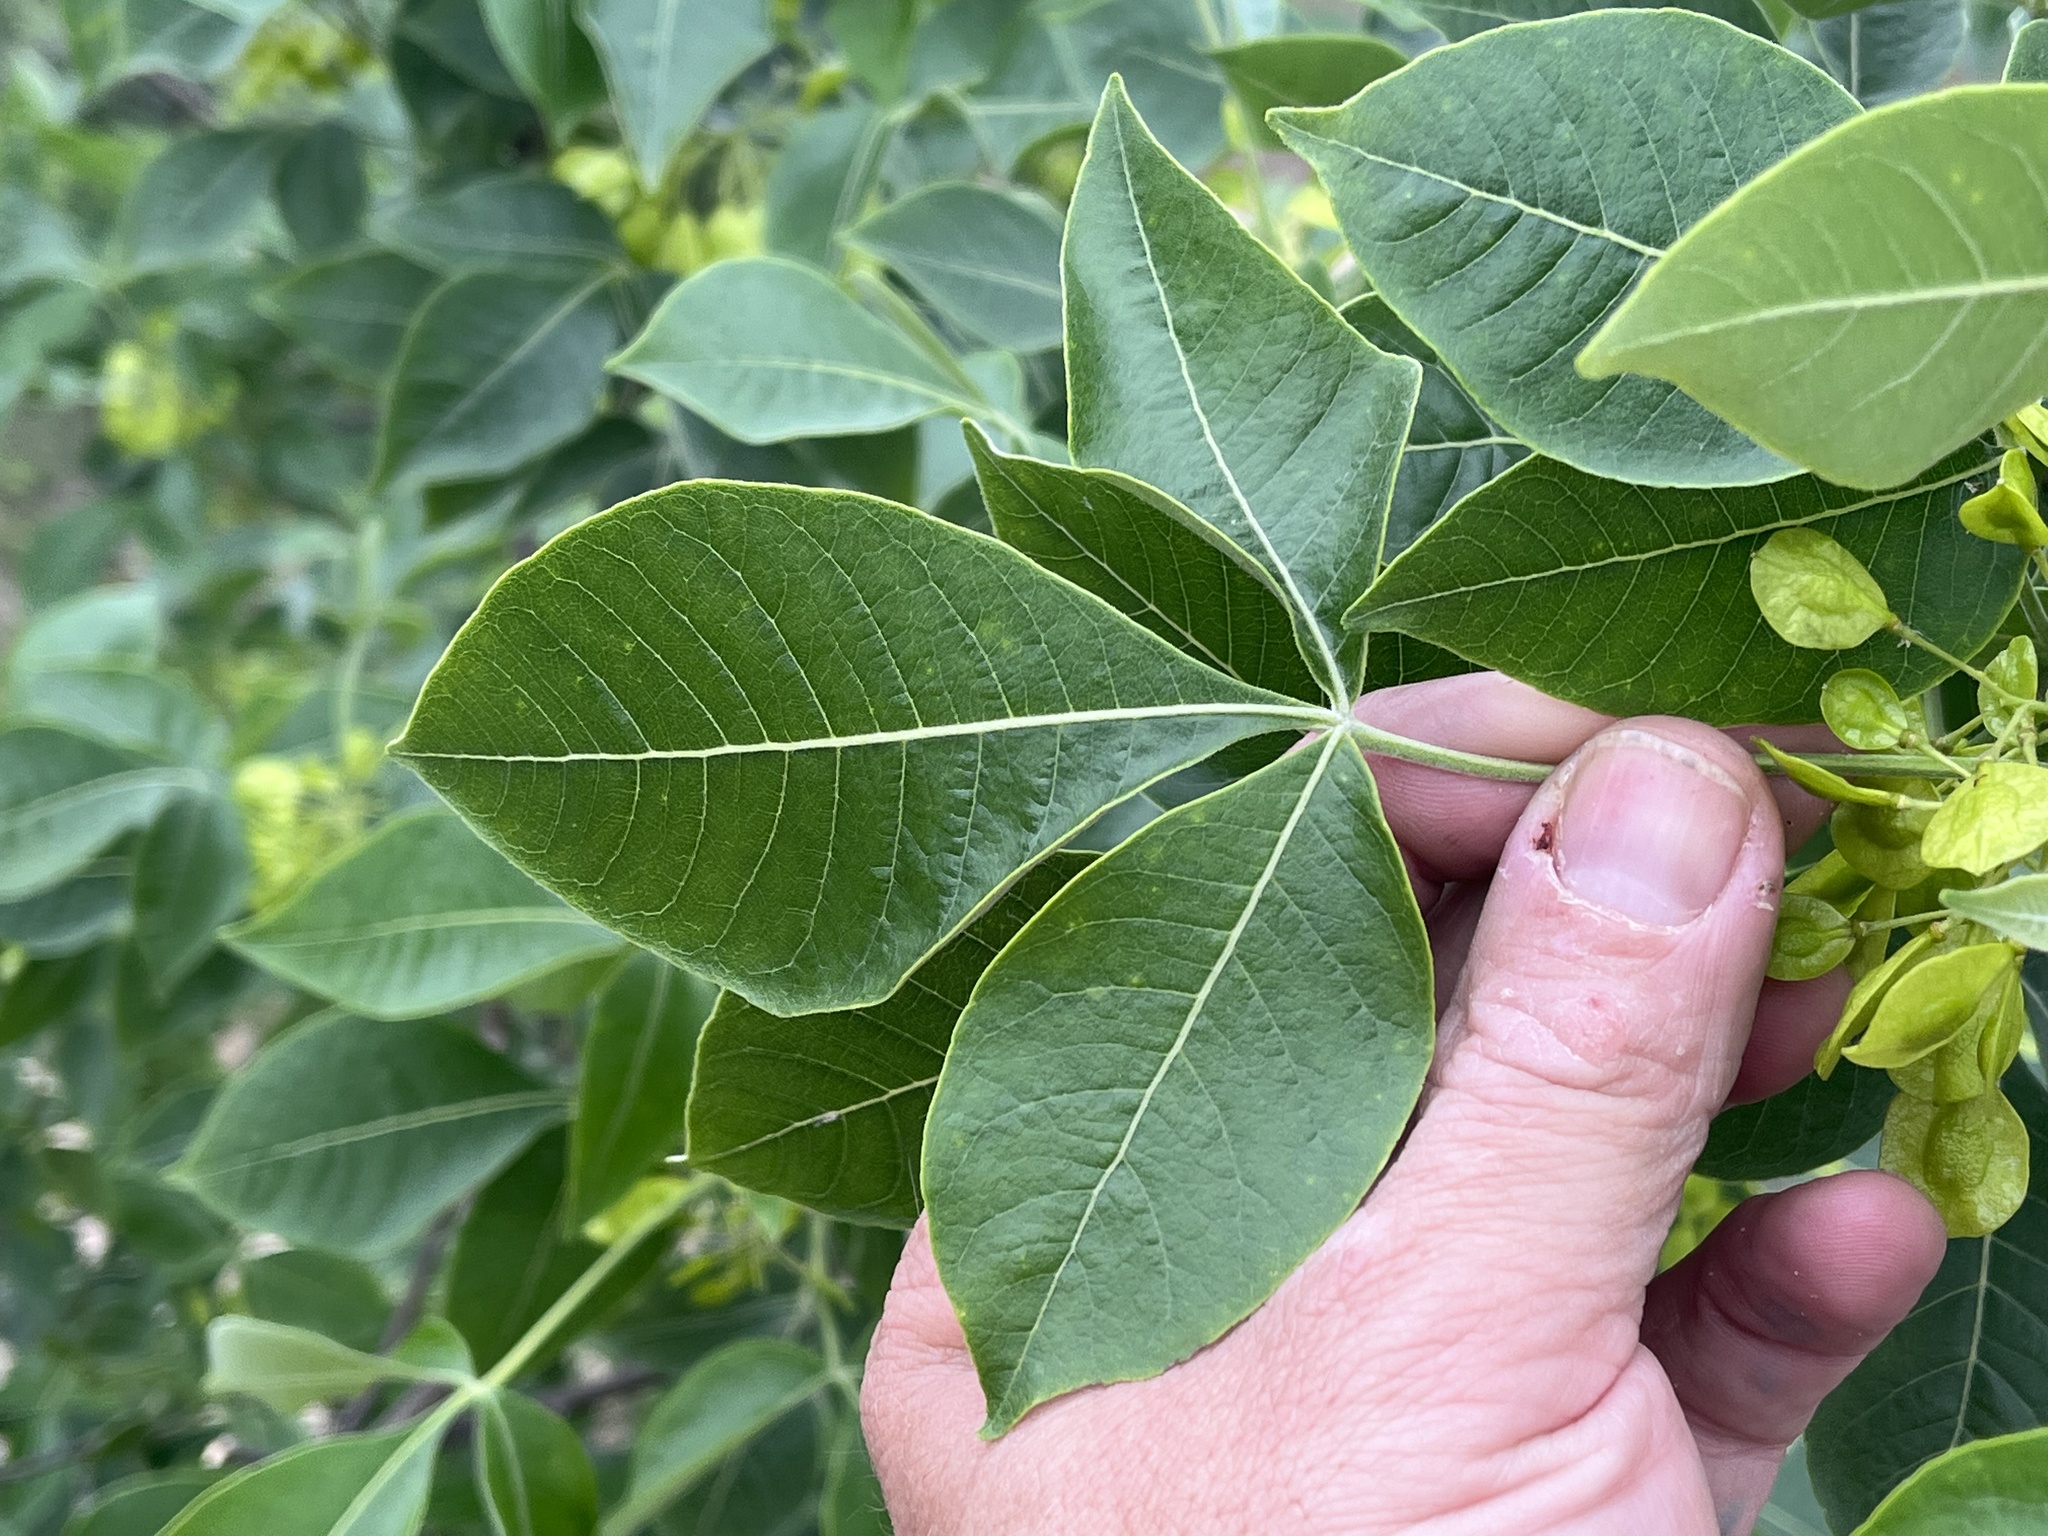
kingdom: Plantae
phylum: Tracheophyta
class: Magnoliopsida
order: Sapindales
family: Rutaceae
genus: Ptelea
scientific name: Ptelea trifoliata
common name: Common hop-tree
